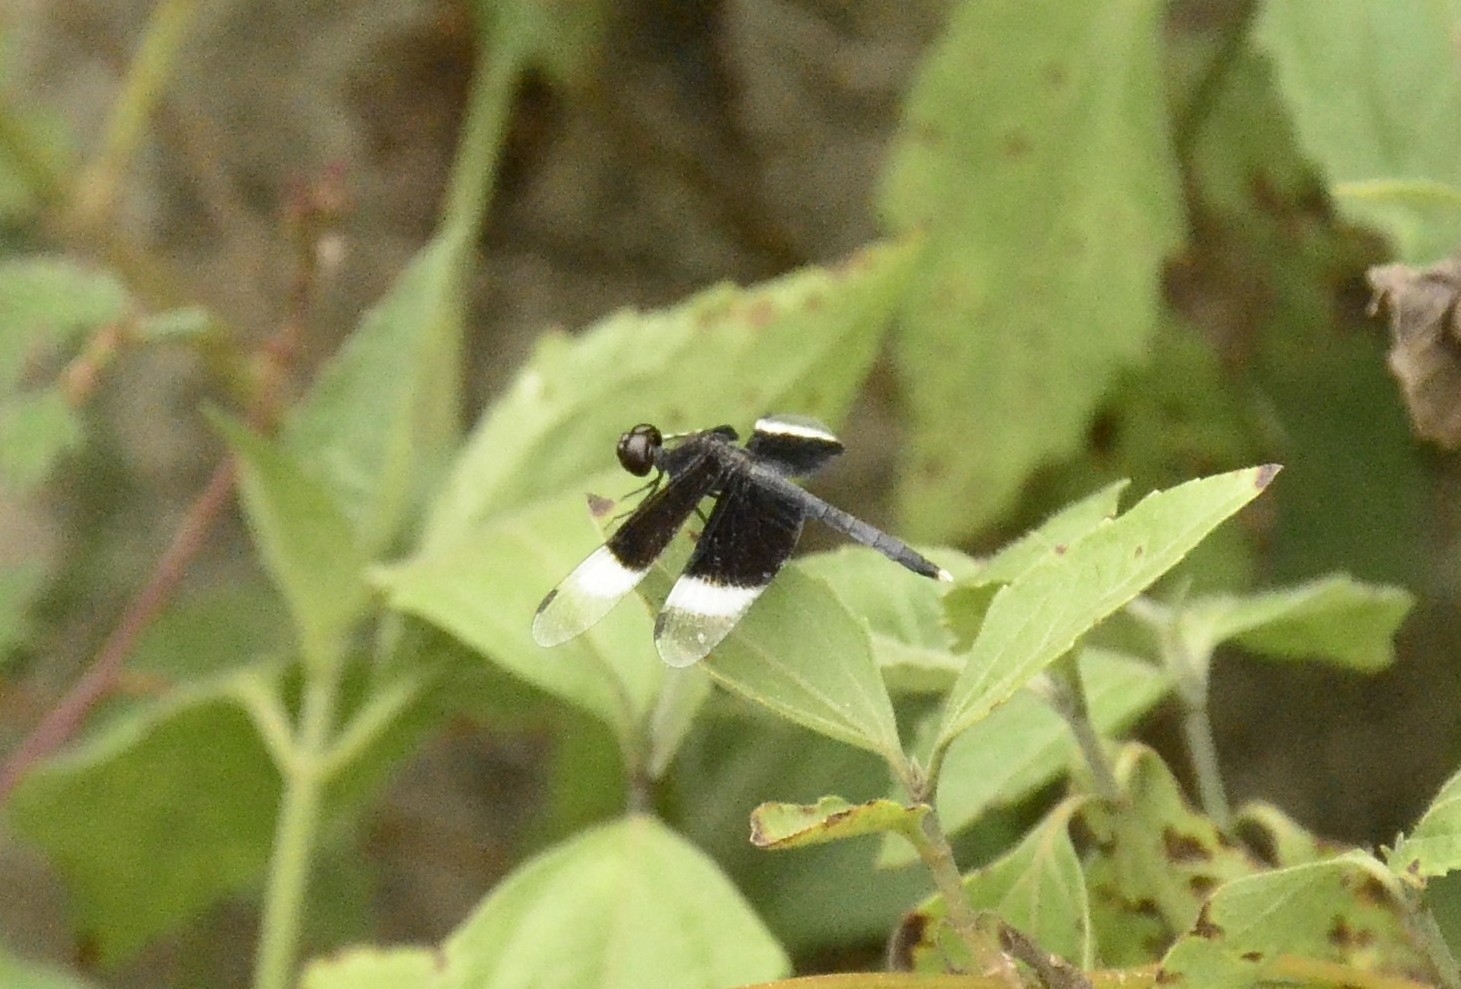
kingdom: Animalia
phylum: Arthropoda
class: Insecta
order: Odonata
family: Libellulidae
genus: Neurothemis
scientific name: Neurothemis tullia
